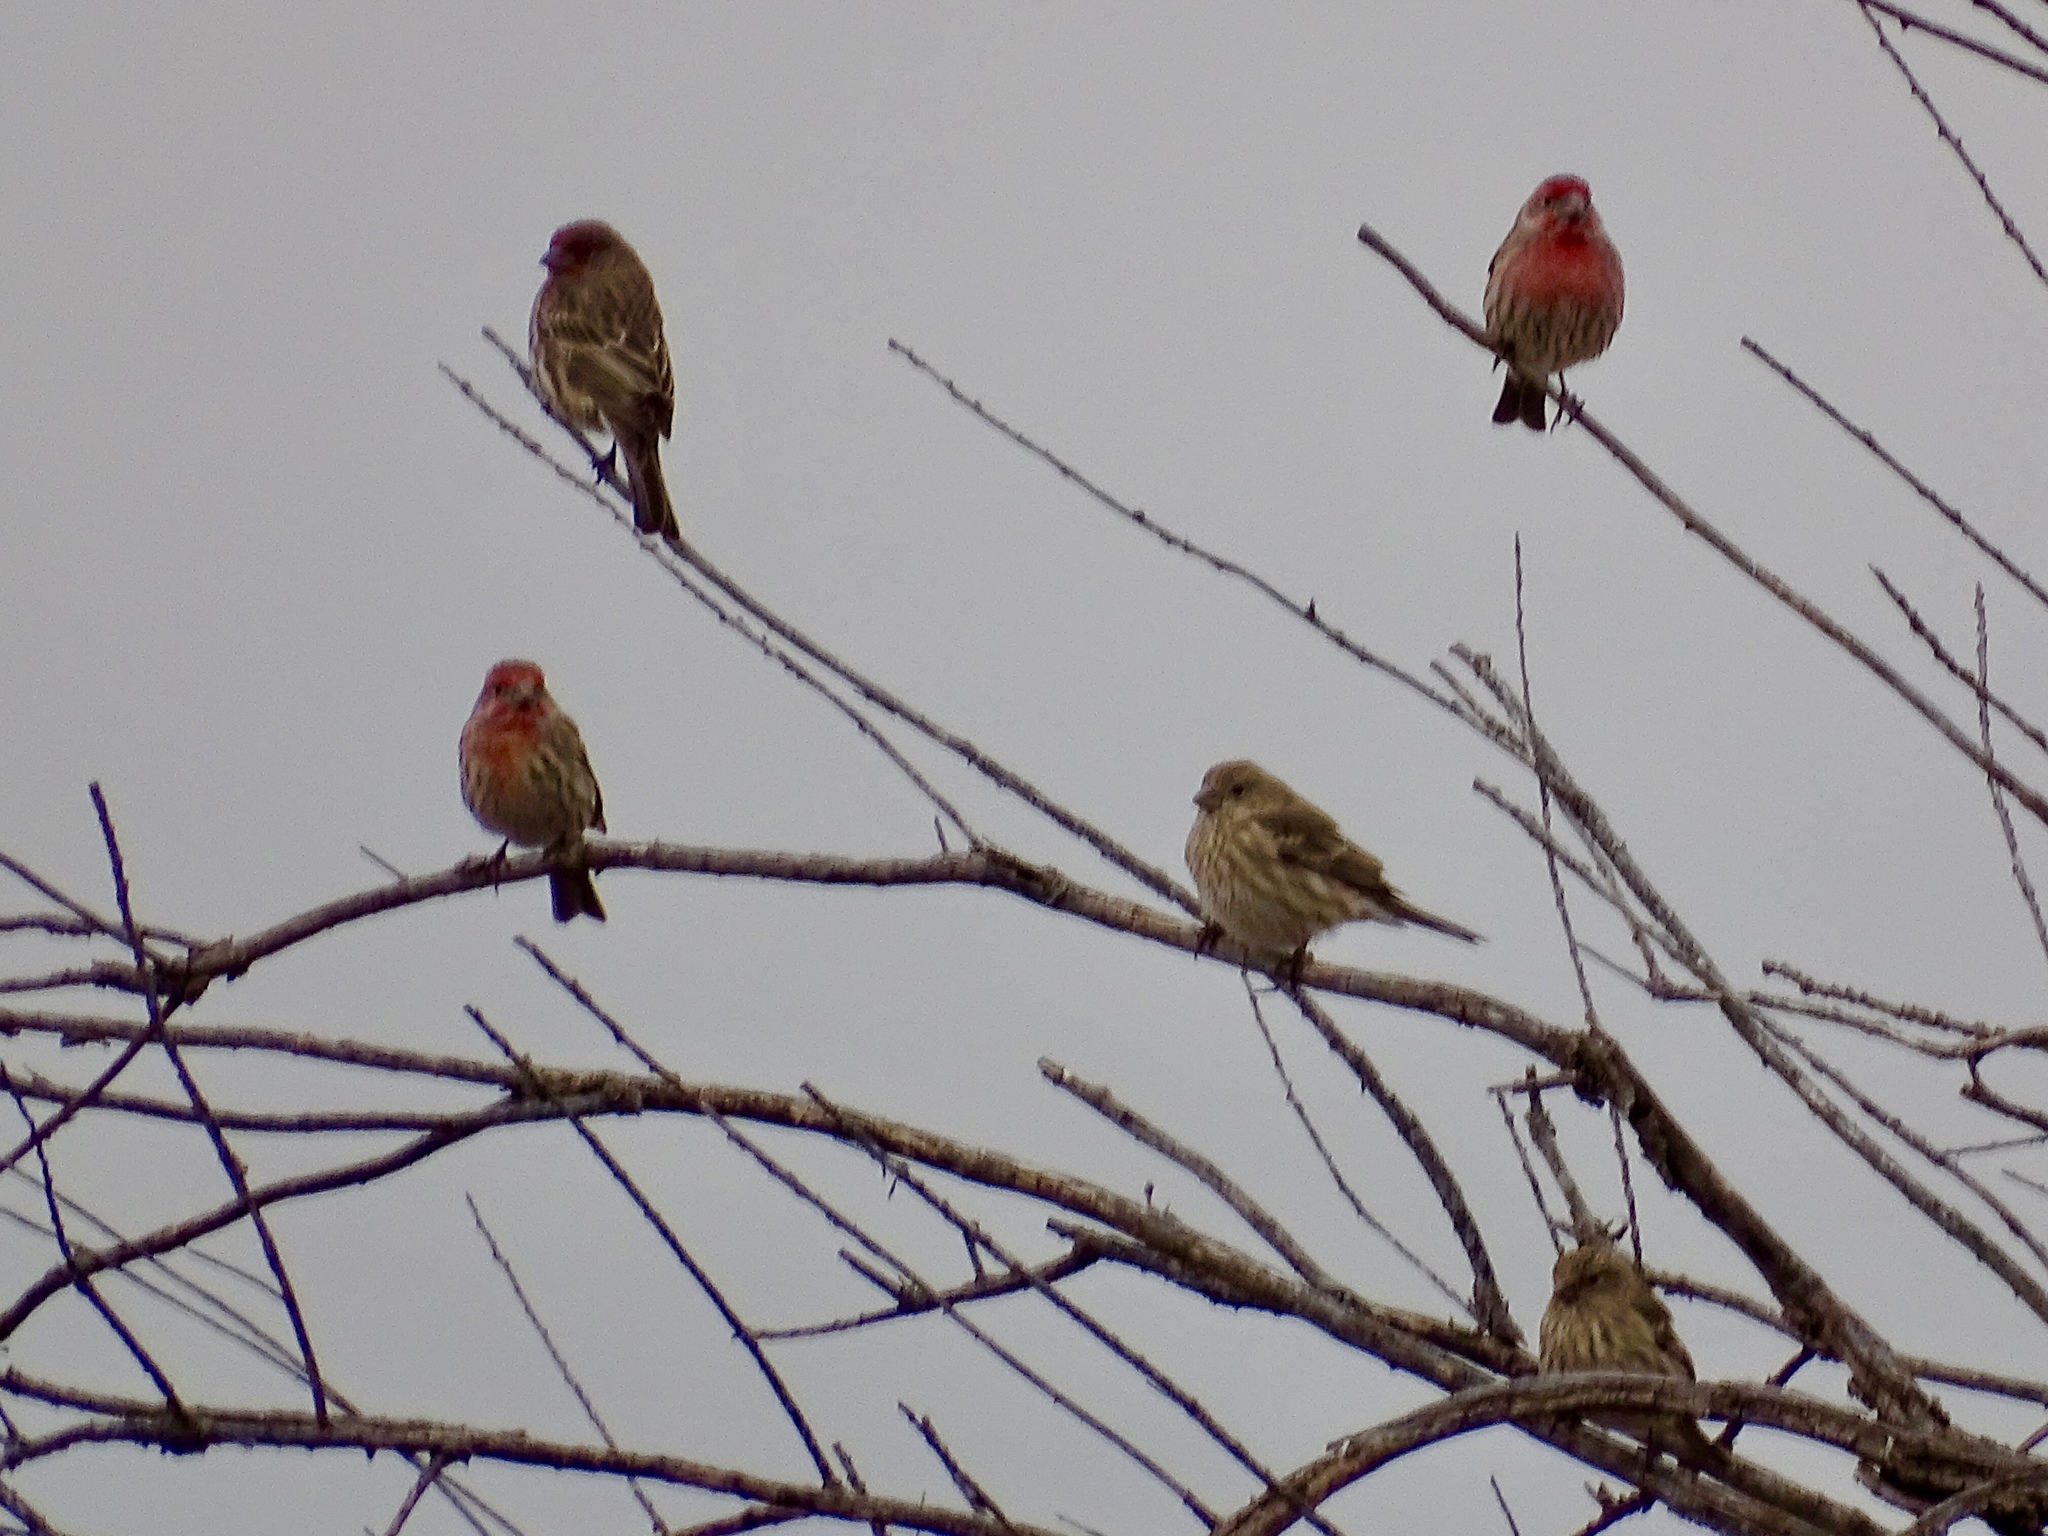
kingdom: Animalia
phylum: Chordata
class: Aves
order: Passeriformes
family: Fringillidae
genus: Haemorhous
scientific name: Haemorhous mexicanus
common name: House finch
